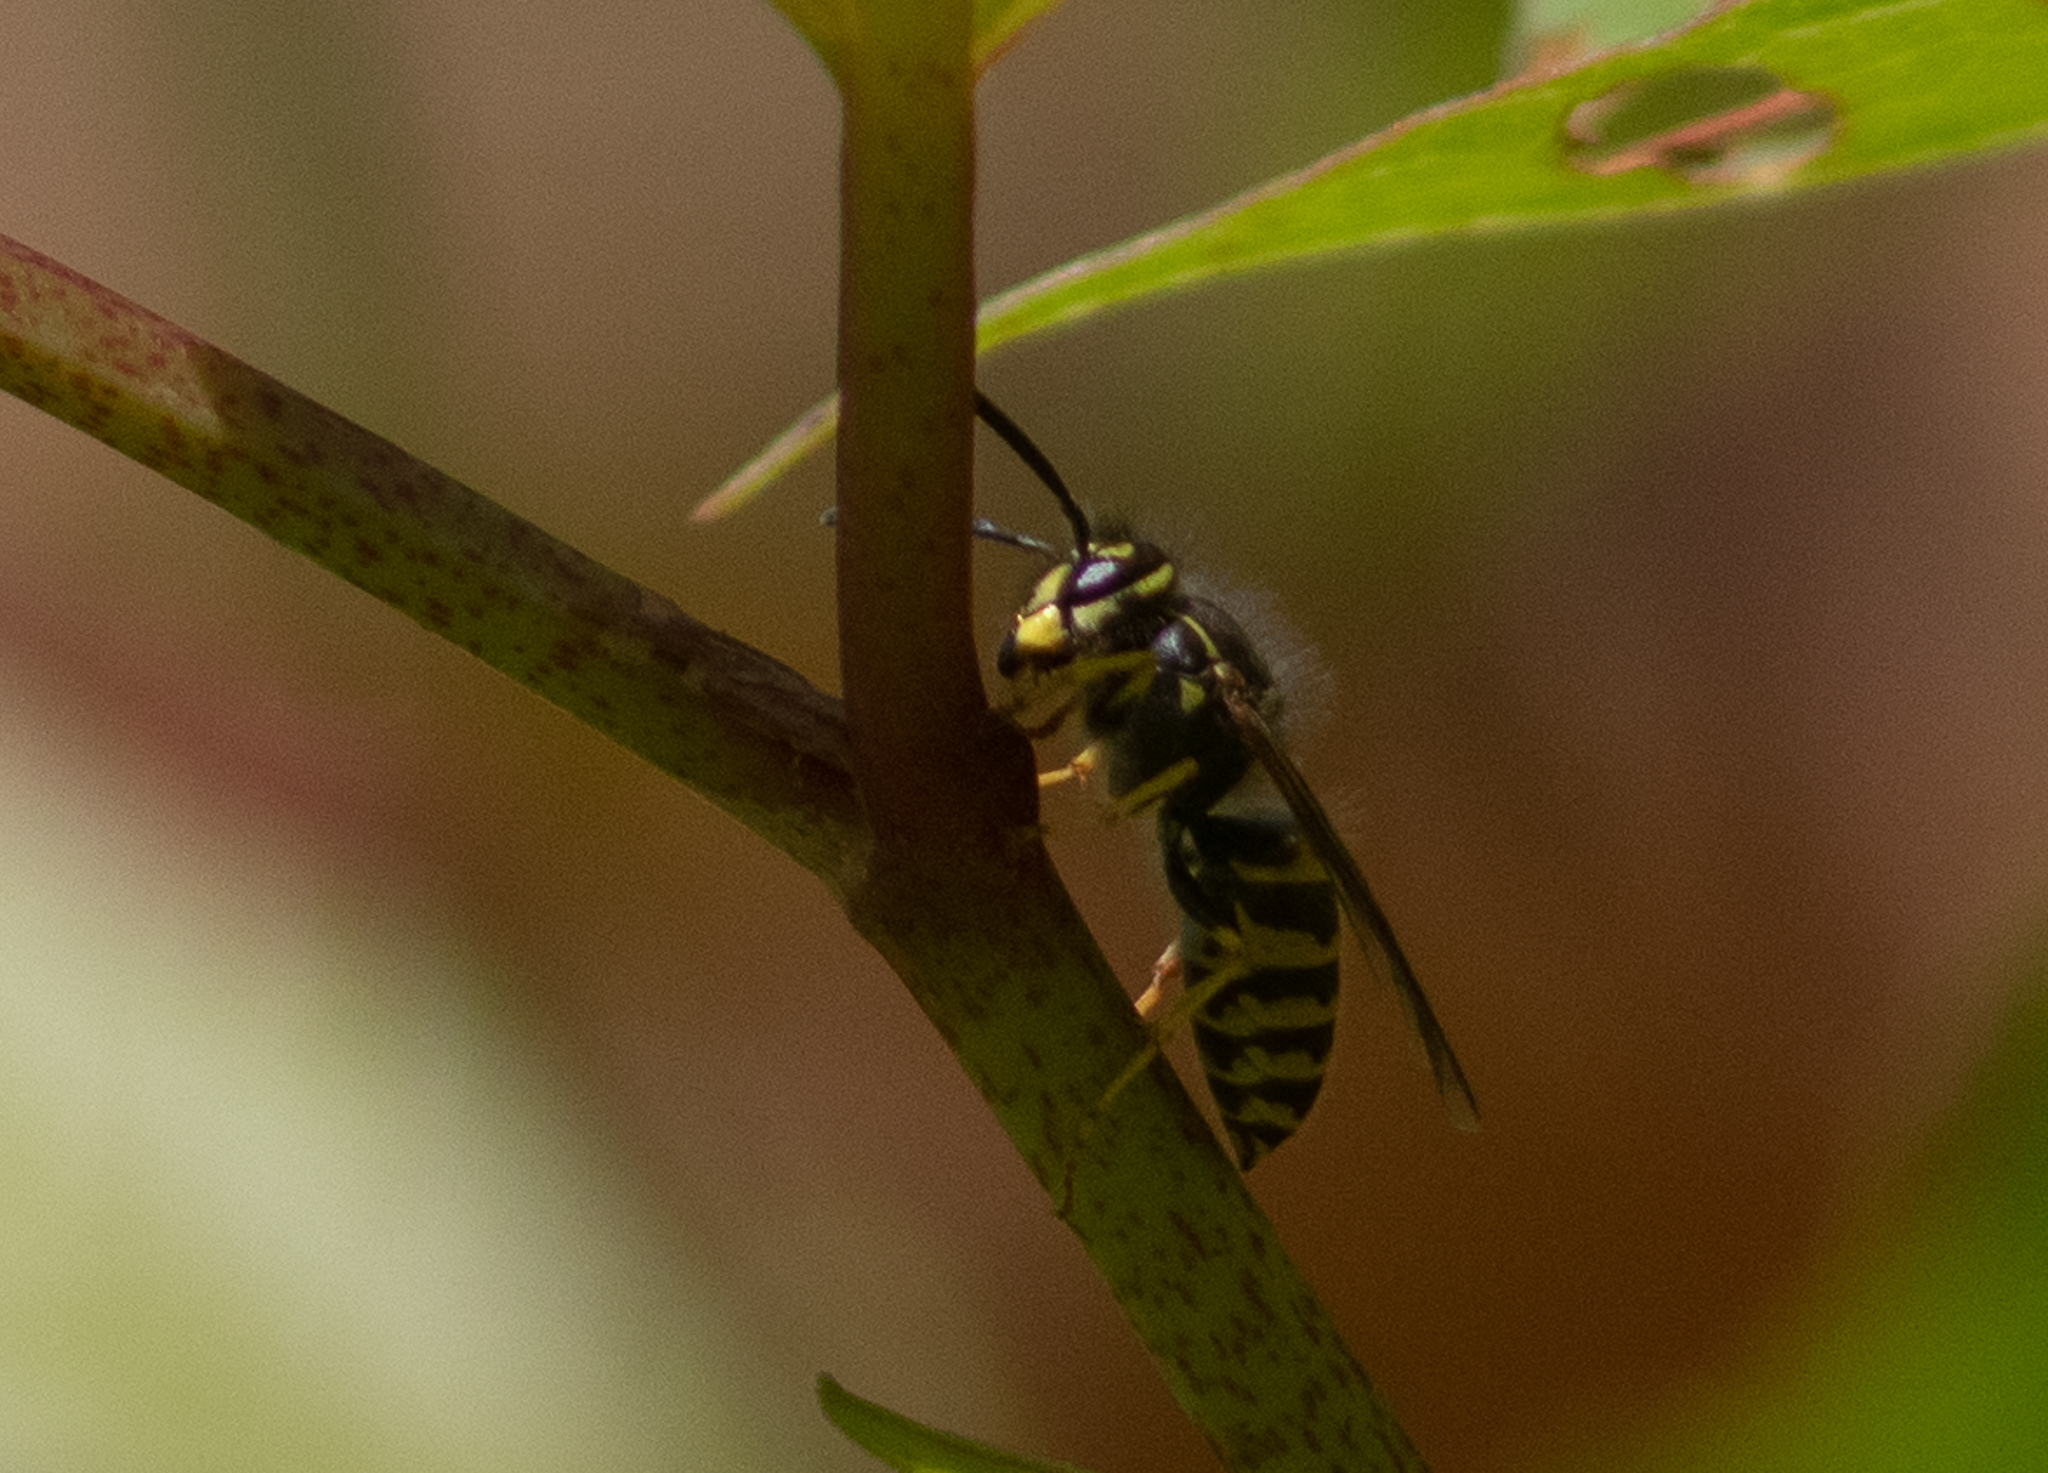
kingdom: Animalia
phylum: Arthropoda
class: Insecta
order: Hymenoptera
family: Vespidae
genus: Vespula
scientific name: Vespula
